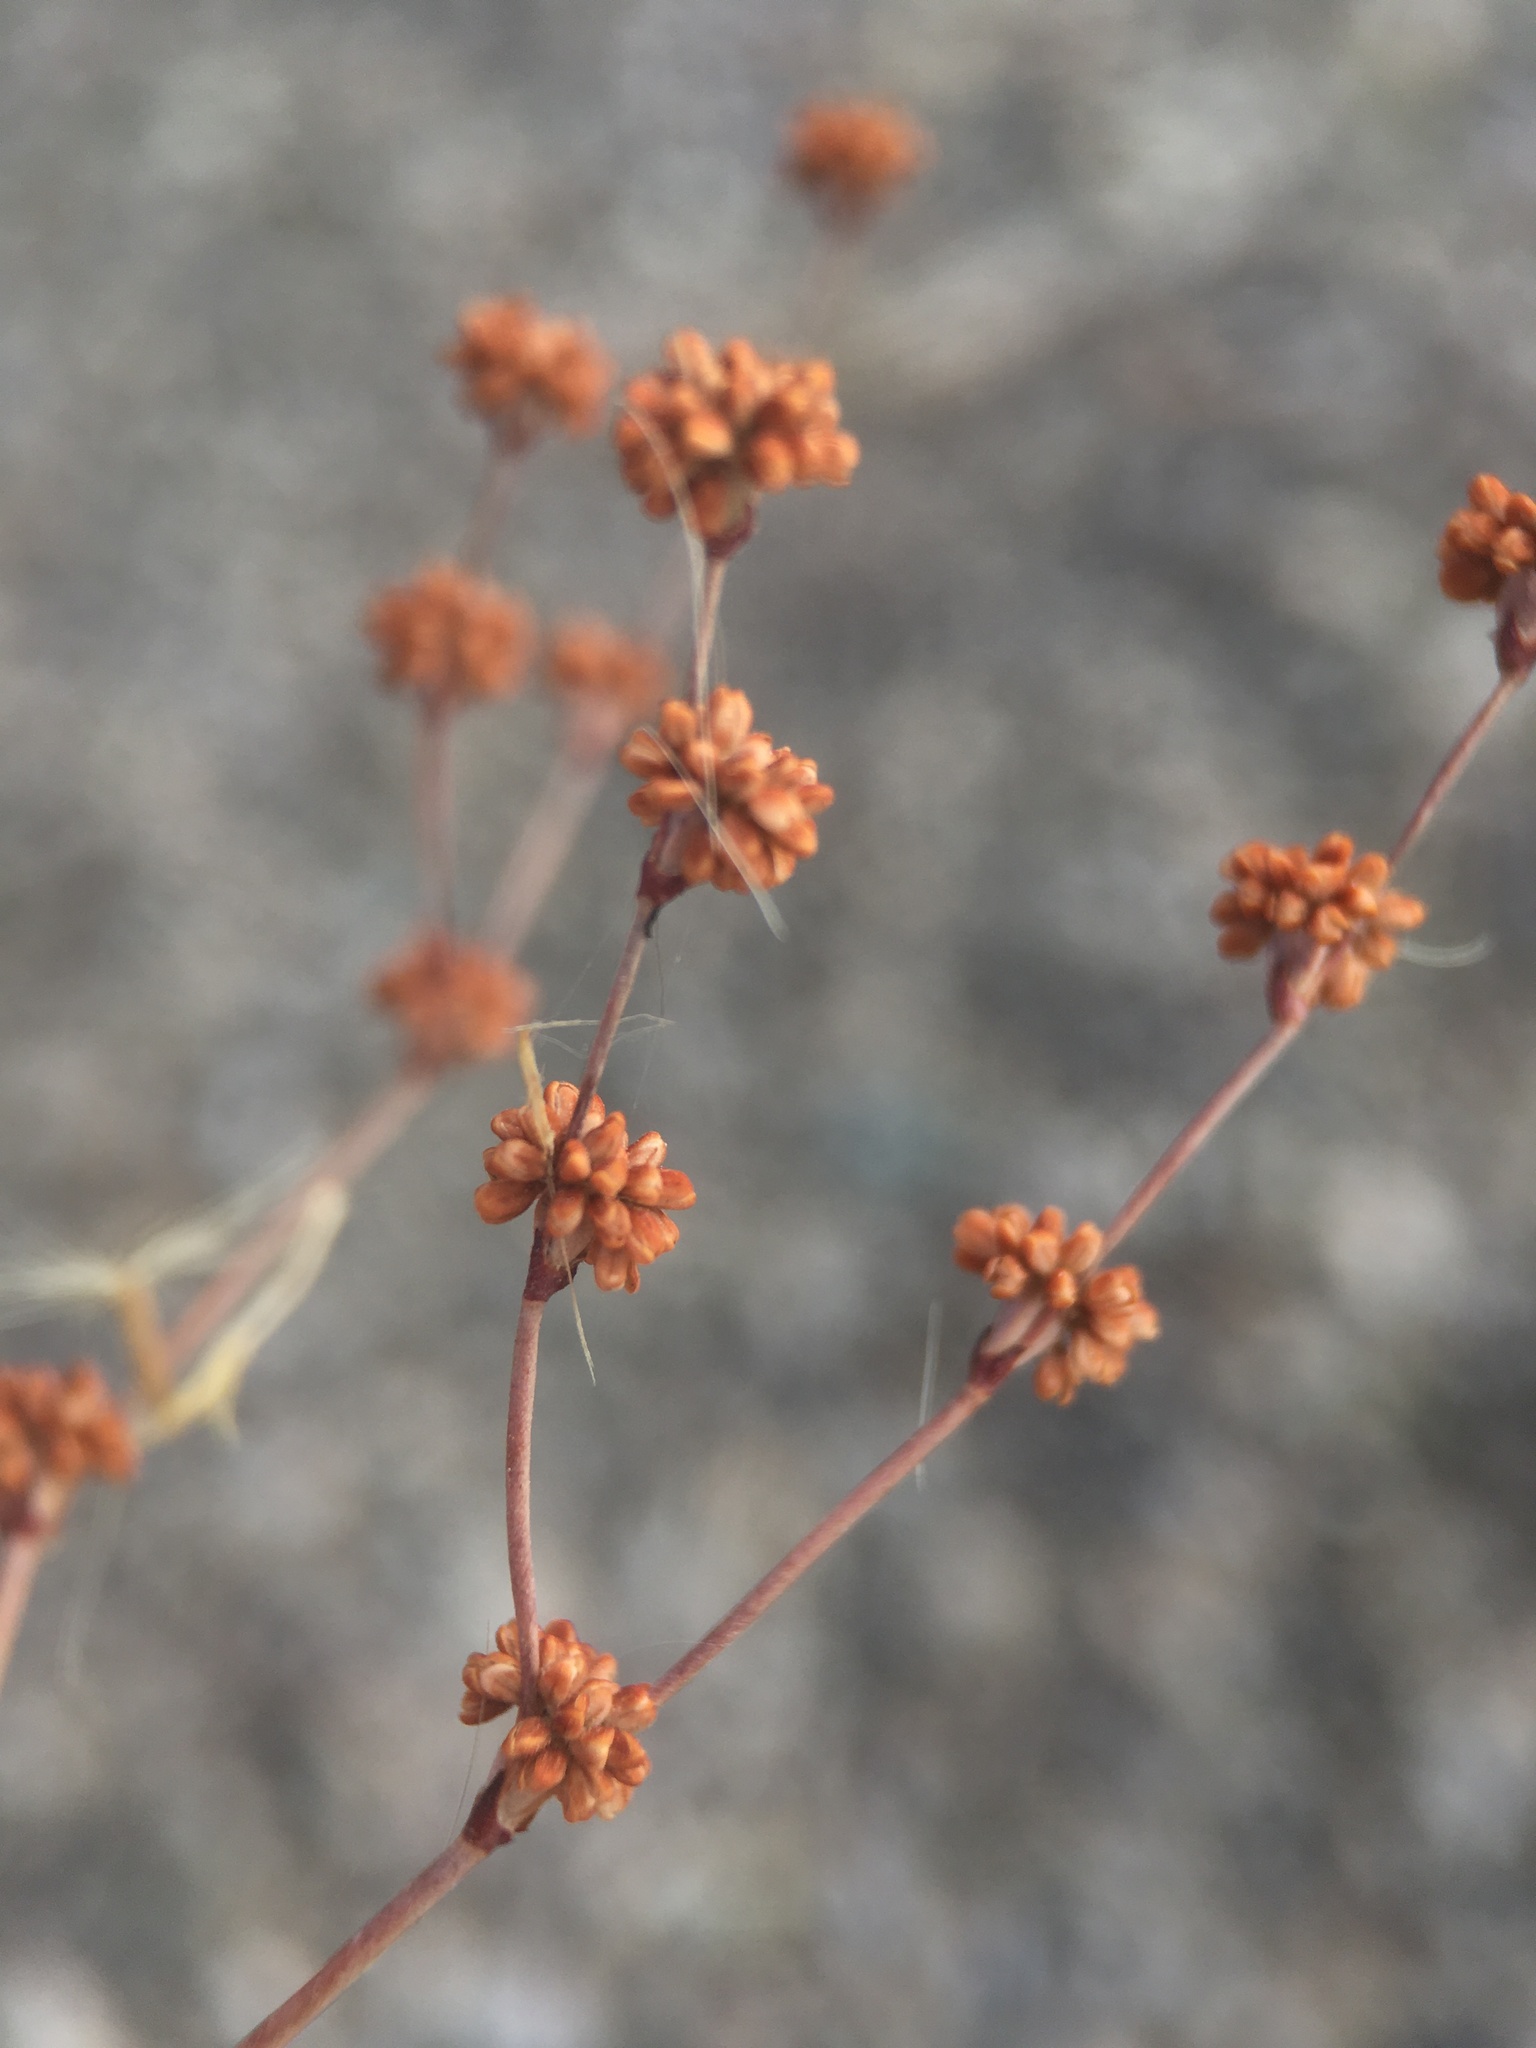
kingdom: Plantae
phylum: Tracheophyta
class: Magnoliopsida
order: Caryophyllales
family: Polygonaceae
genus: Eriogonum
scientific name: Eriogonum baileyi
